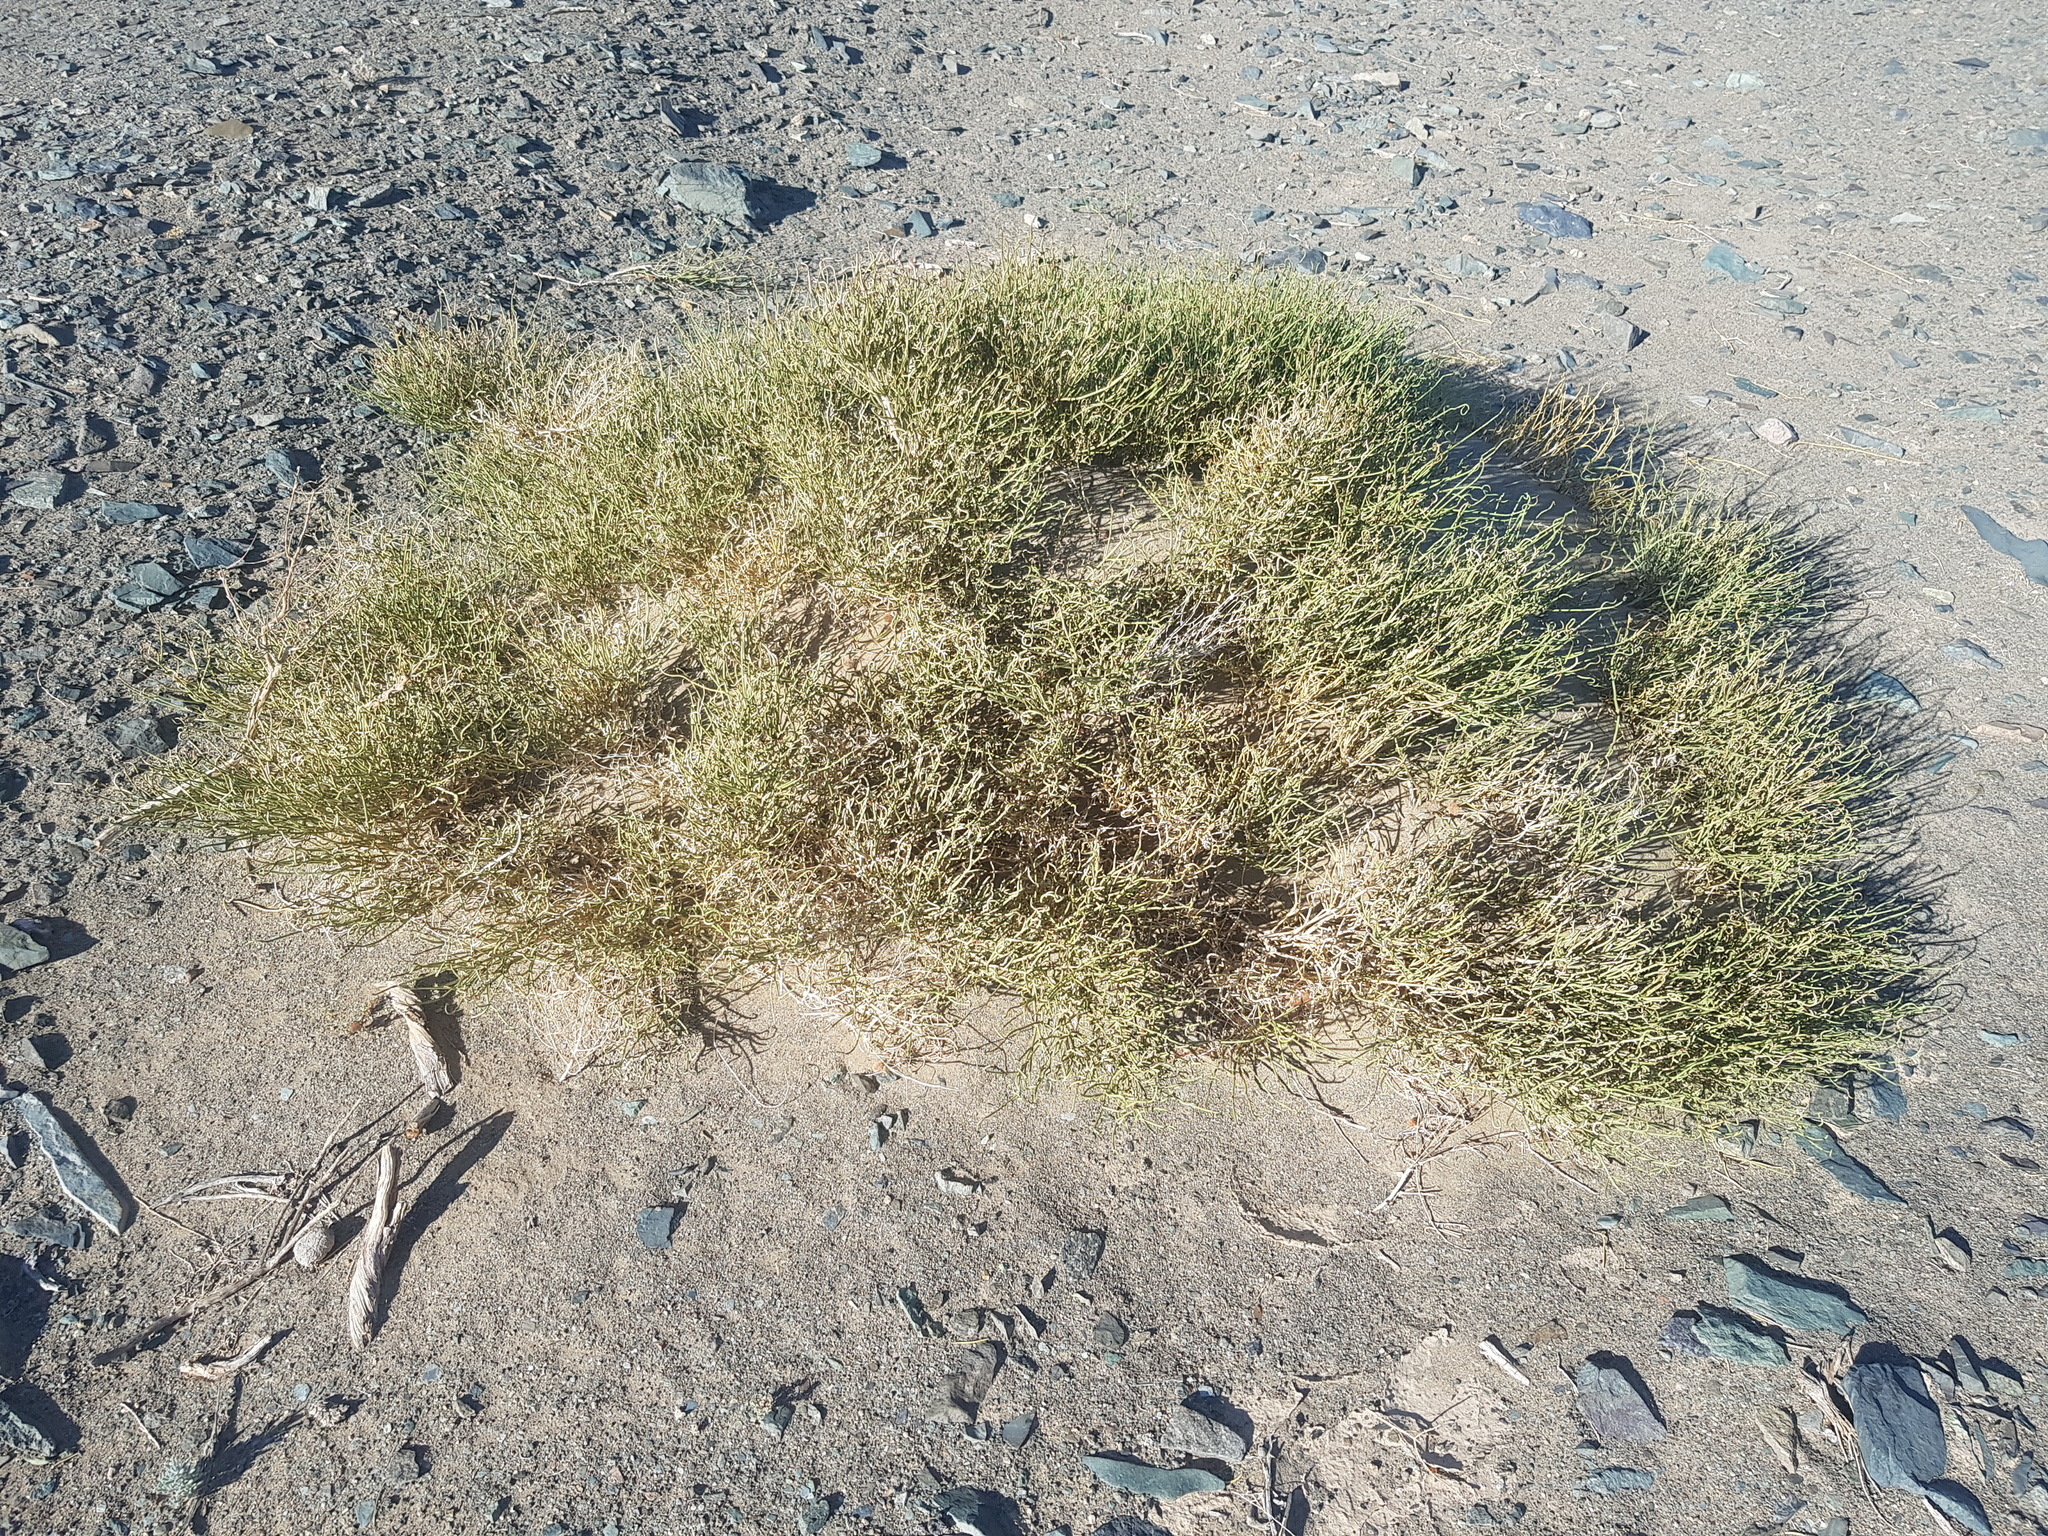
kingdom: Plantae
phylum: Tracheophyta
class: Gnetopsida
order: Ephedrales
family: Ephedraceae
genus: Ephedra
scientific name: Ephedra przewalskii
